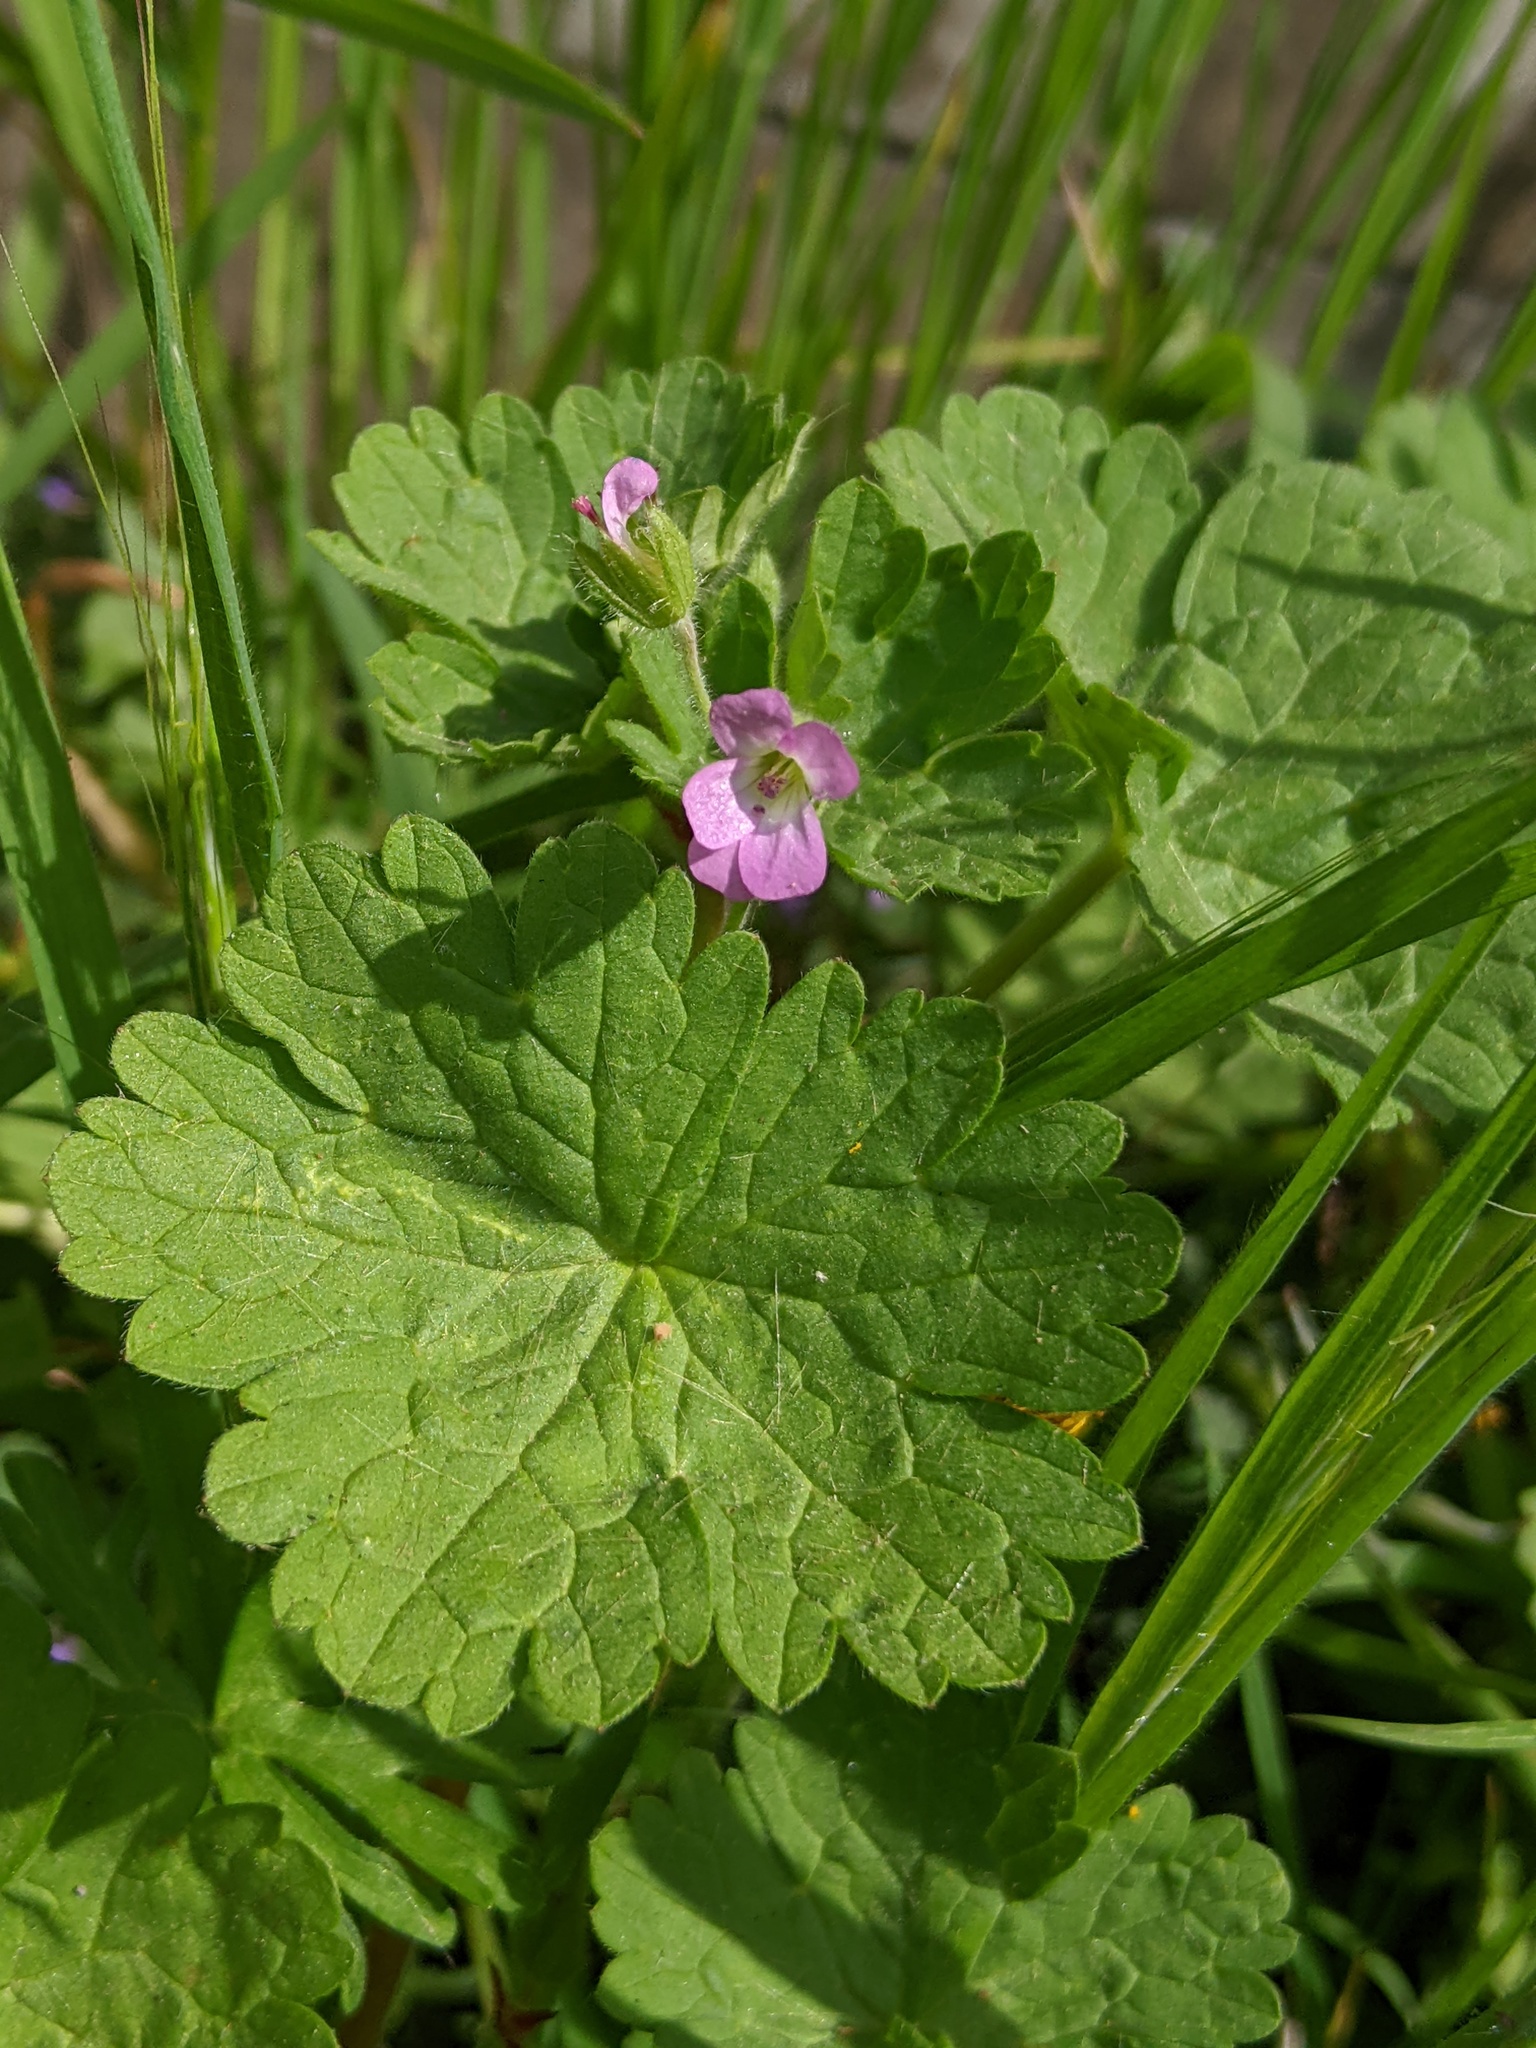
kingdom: Plantae
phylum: Tracheophyta
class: Magnoliopsida
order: Geraniales
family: Geraniaceae
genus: Geranium
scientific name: Geranium rotundifolium
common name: Round-leaved crane's-bill
